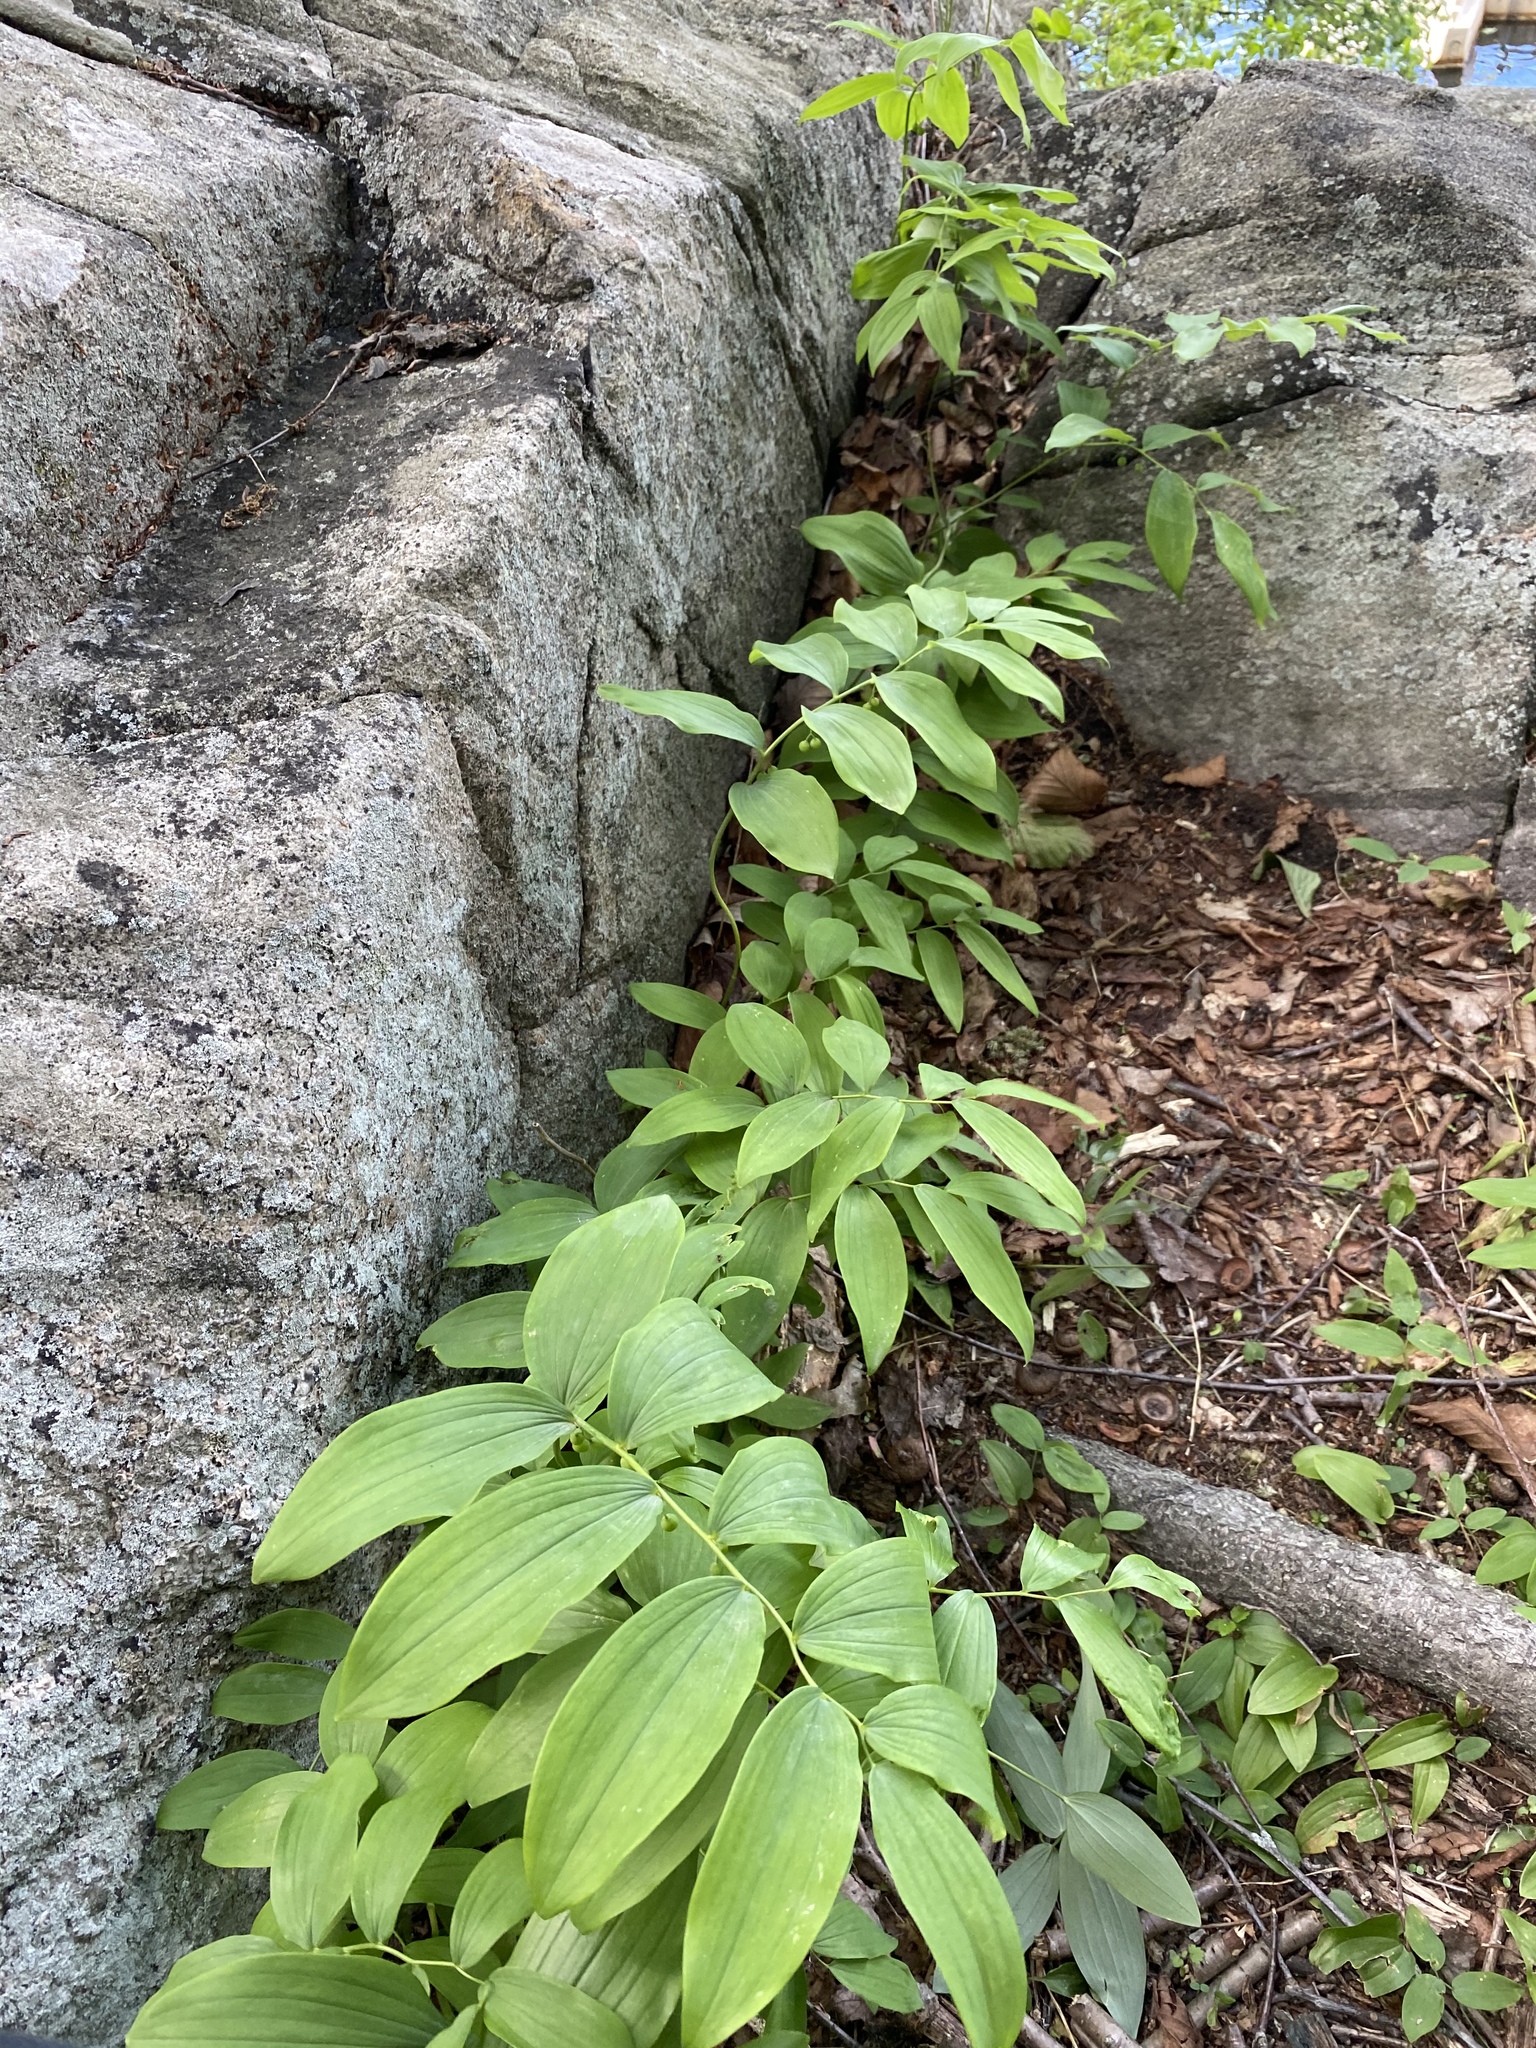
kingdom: Plantae
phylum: Tracheophyta
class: Liliopsida
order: Asparagales
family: Asparagaceae
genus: Polygonatum
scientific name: Polygonatum pubescens
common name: Downy solomon's seal
